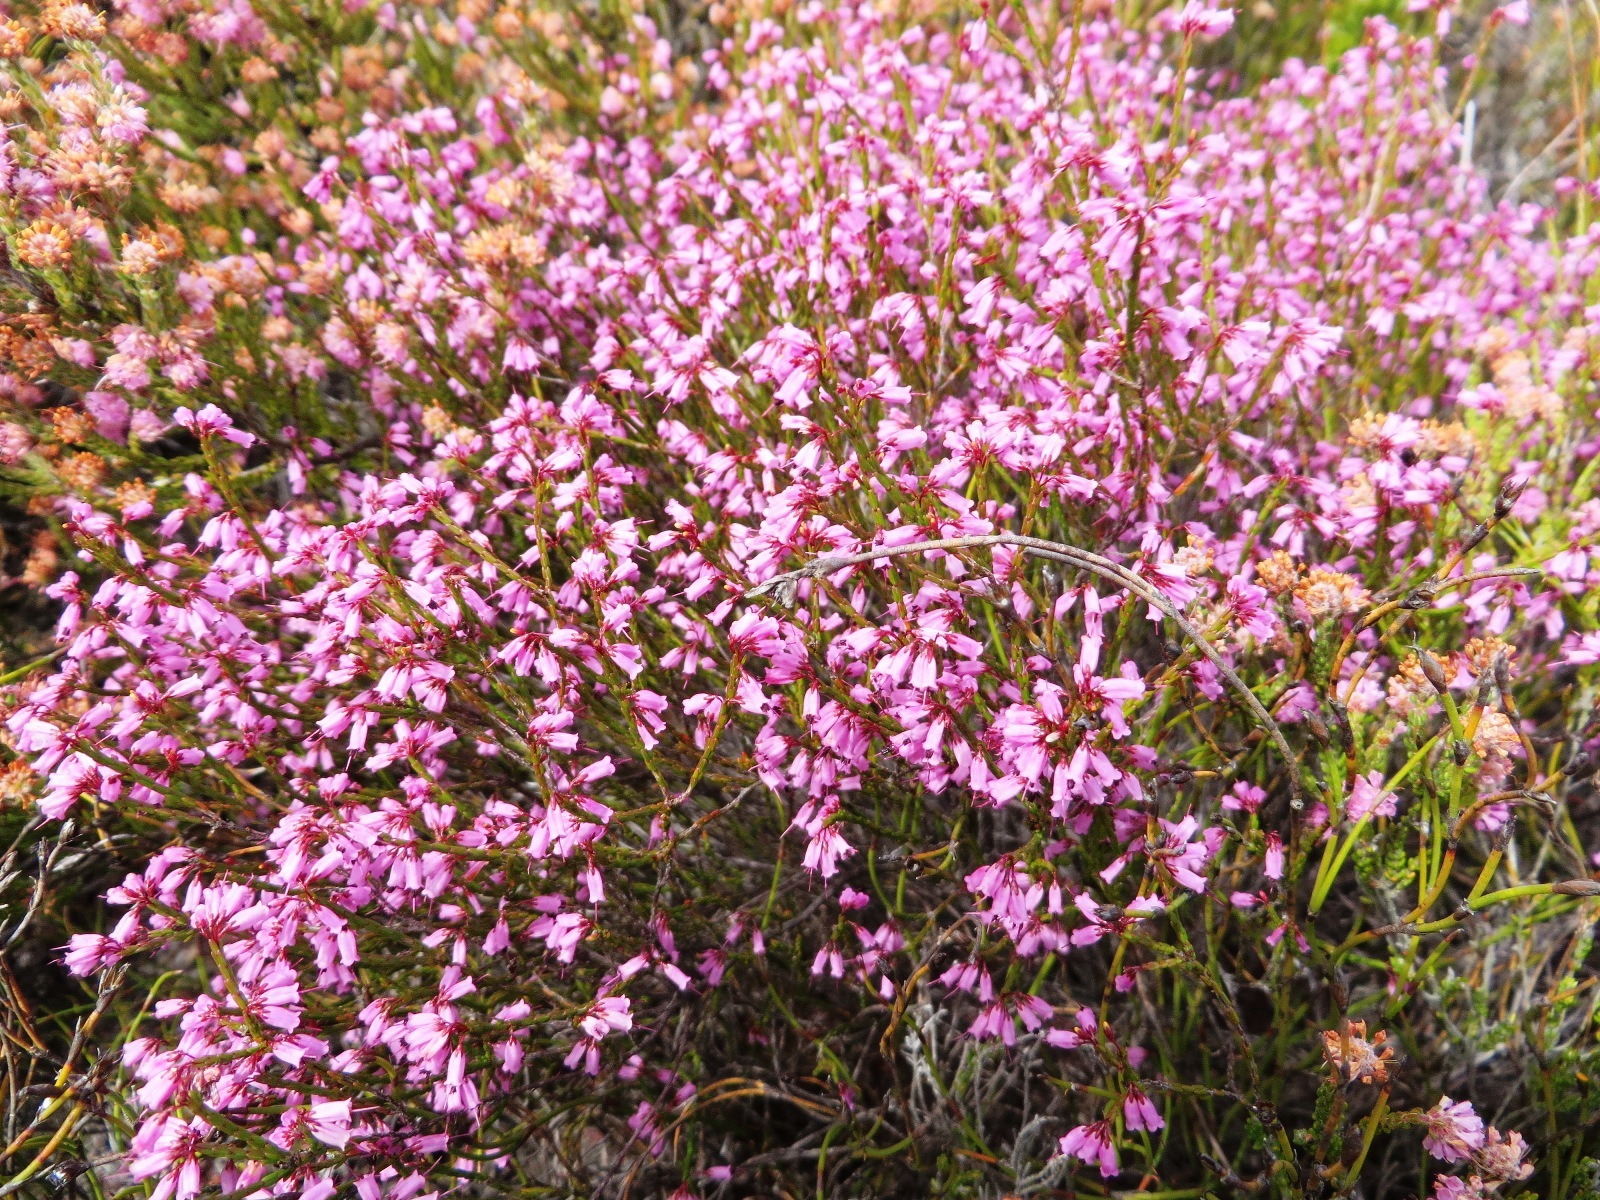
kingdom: Plantae
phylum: Tracheophyta
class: Magnoliopsida
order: Ericales
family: Ericaceae
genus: Erica
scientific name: Erica equisetifolia
